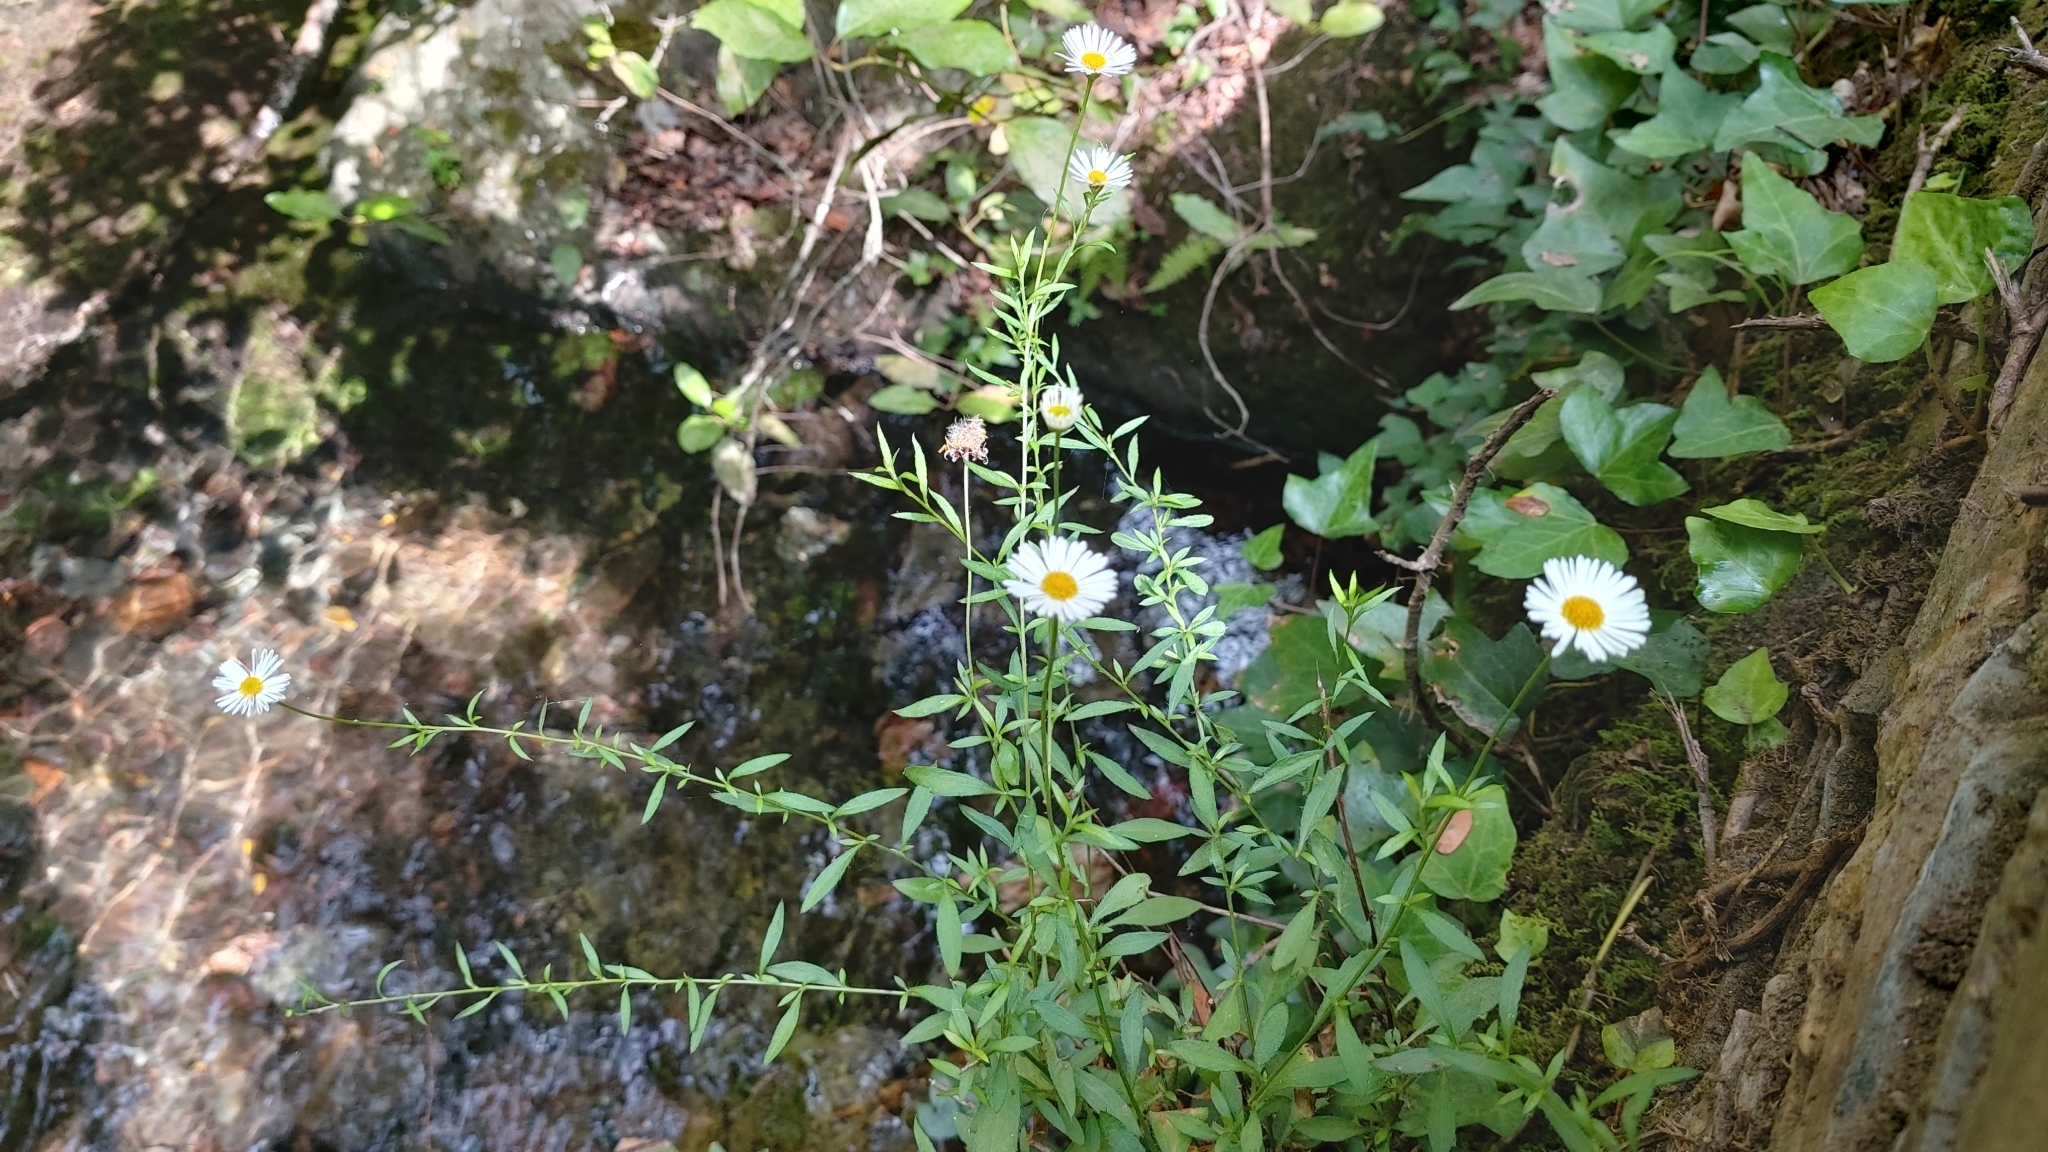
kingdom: Plantae
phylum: Tracheophyta
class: Magnoliopsida
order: Asterales
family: Asteraceae
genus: Erigeron
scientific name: Erigeron karvinskianus
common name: Mexican fleabane
